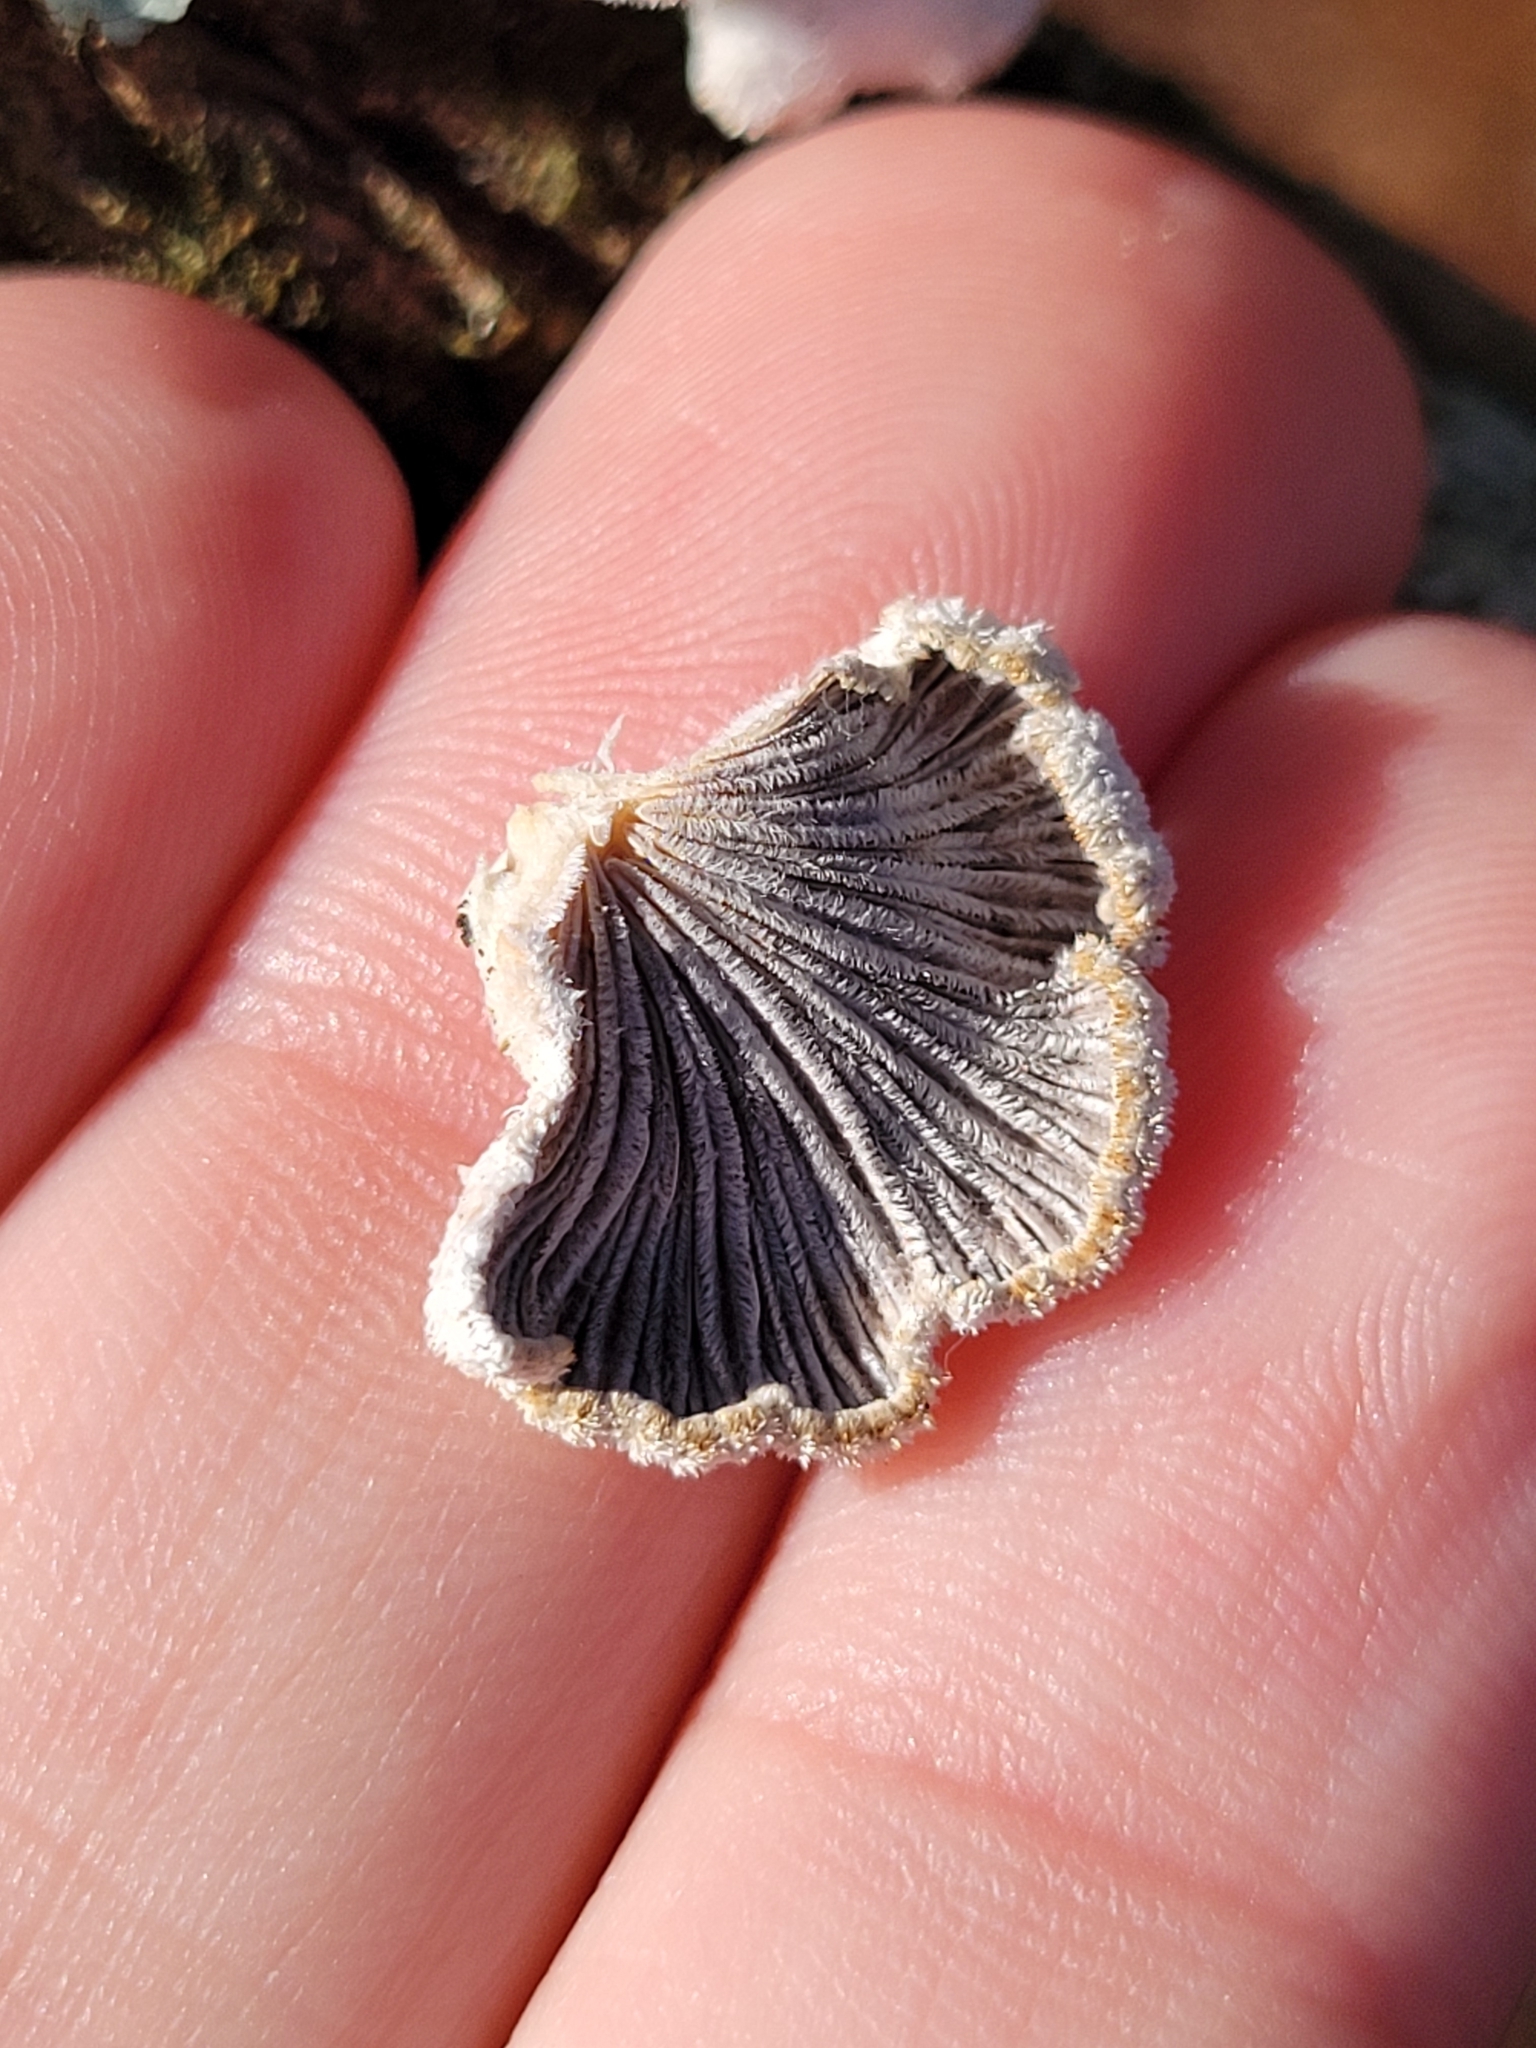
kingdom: Fungi
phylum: Basidiomycota
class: Agaricomycetes
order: Agaricales
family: Schizophyllaceae
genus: Schizophyllum
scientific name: Schizophyllum commune
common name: Common porecrust
